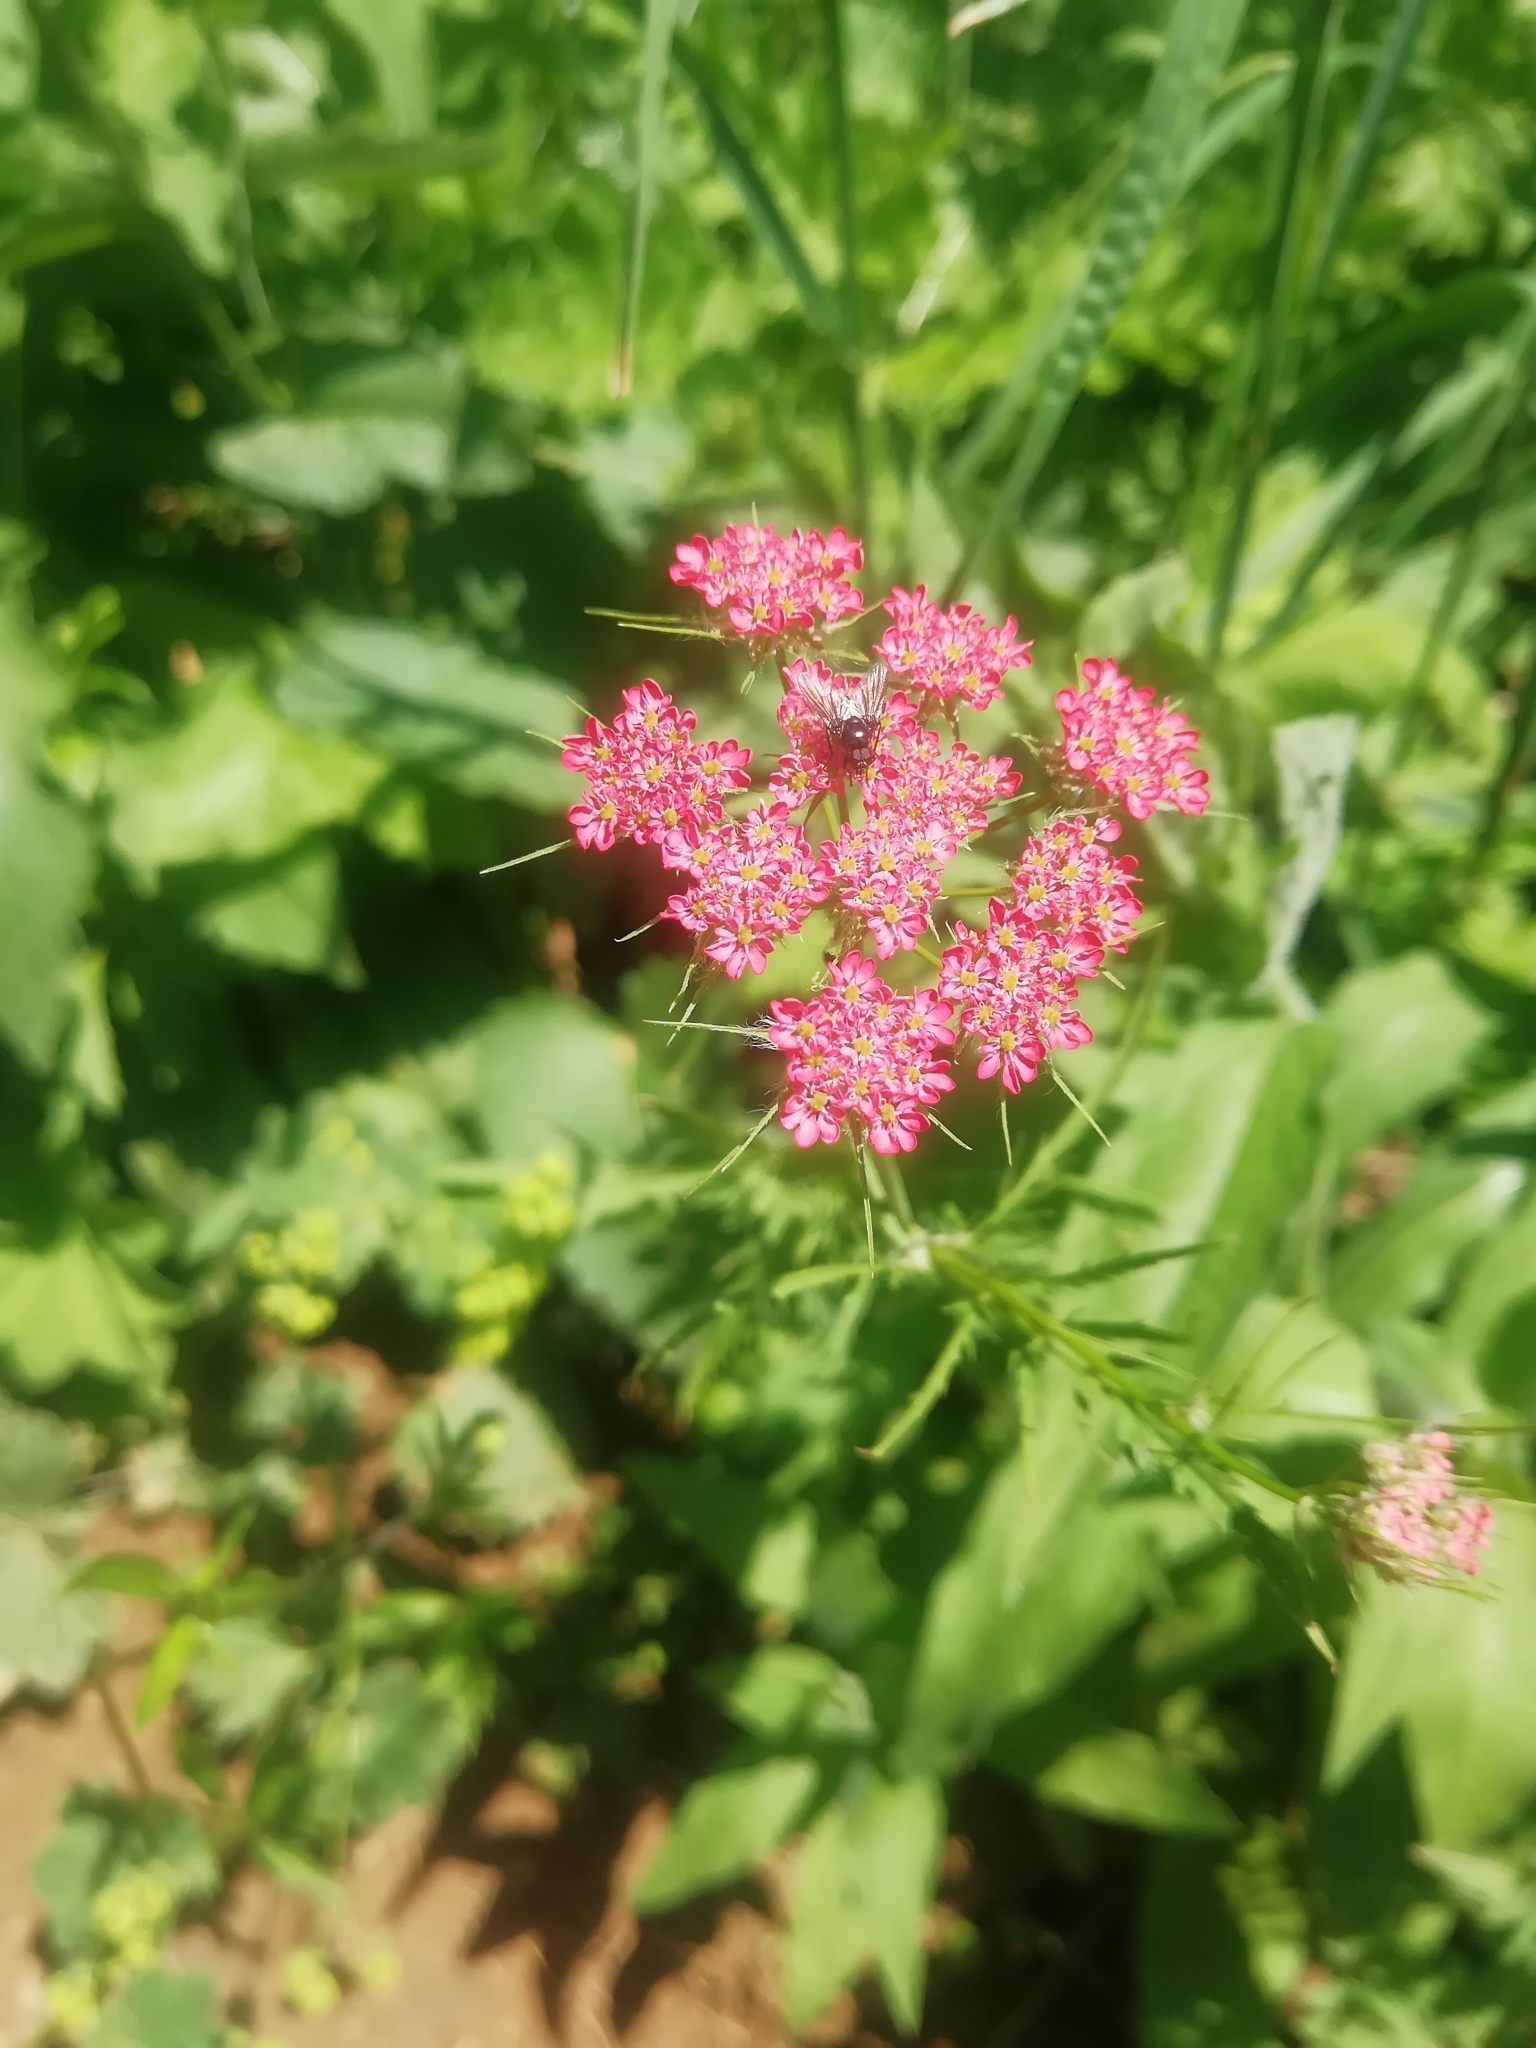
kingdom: Plantae
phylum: Tracheophyta
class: Magnoliopsida
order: Apiales
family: Apiaceae
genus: Chaerophyllum
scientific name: Chaerophyllum roseum
